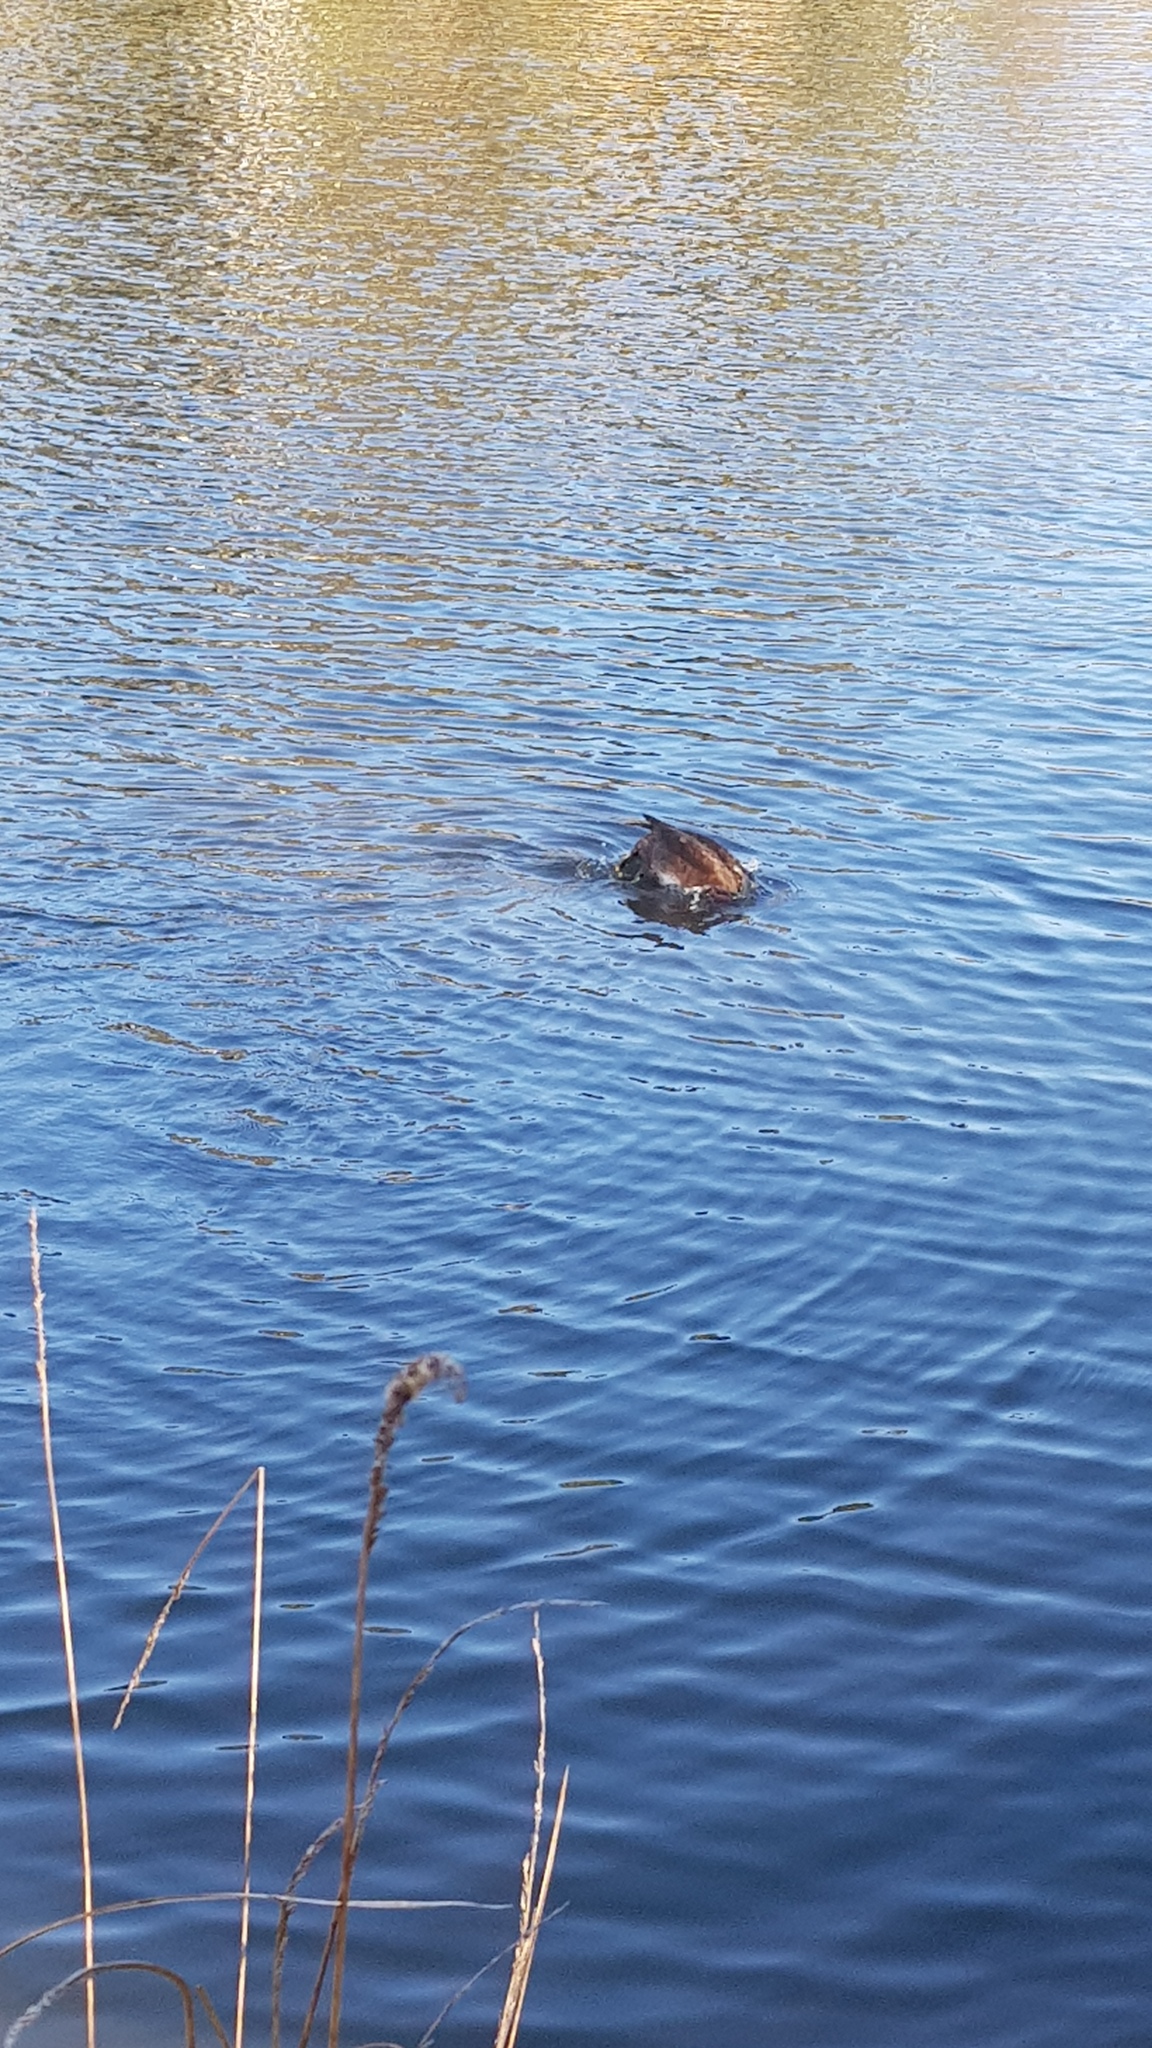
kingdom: Animalia
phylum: Chordata
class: Aves
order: Anseriformes
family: Anatidae
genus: Aythya
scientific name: Aythya australis
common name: Hardhead
